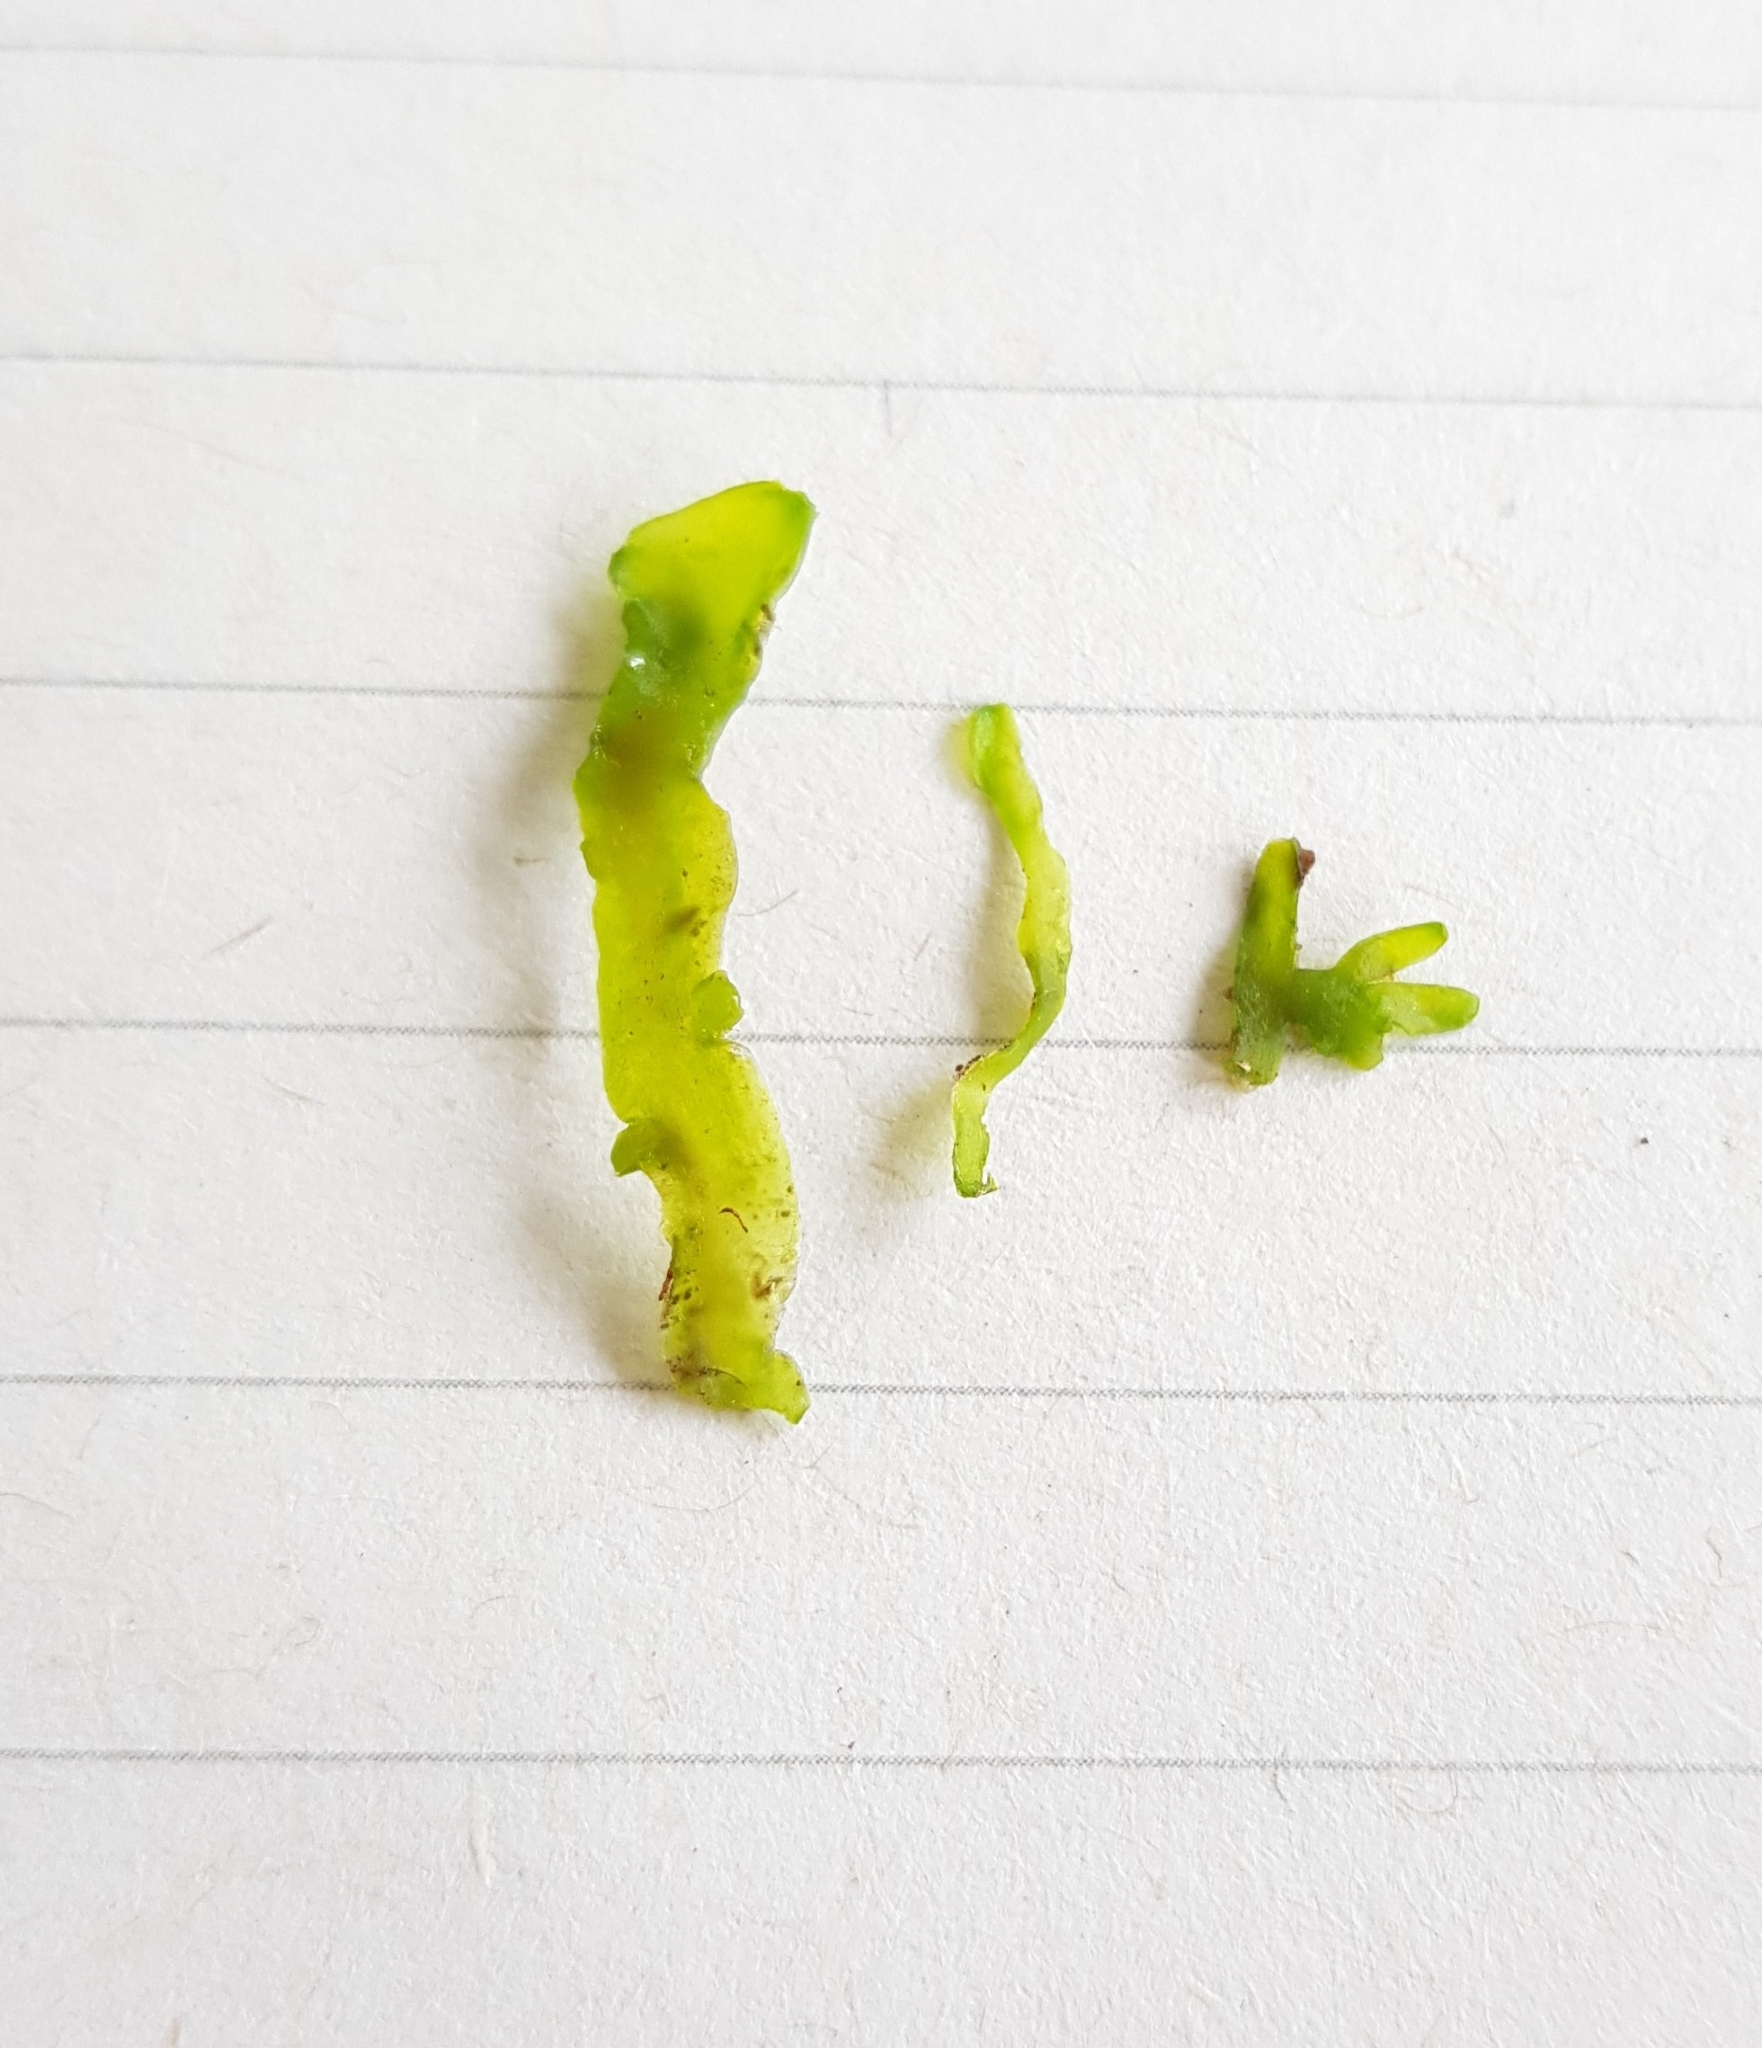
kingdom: Plantae
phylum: Marchantiophyta
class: Jungermanniopsida
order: Metzgeriales
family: Aneuraceae
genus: Aneura
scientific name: Aneura maxima
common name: Large greasewort
